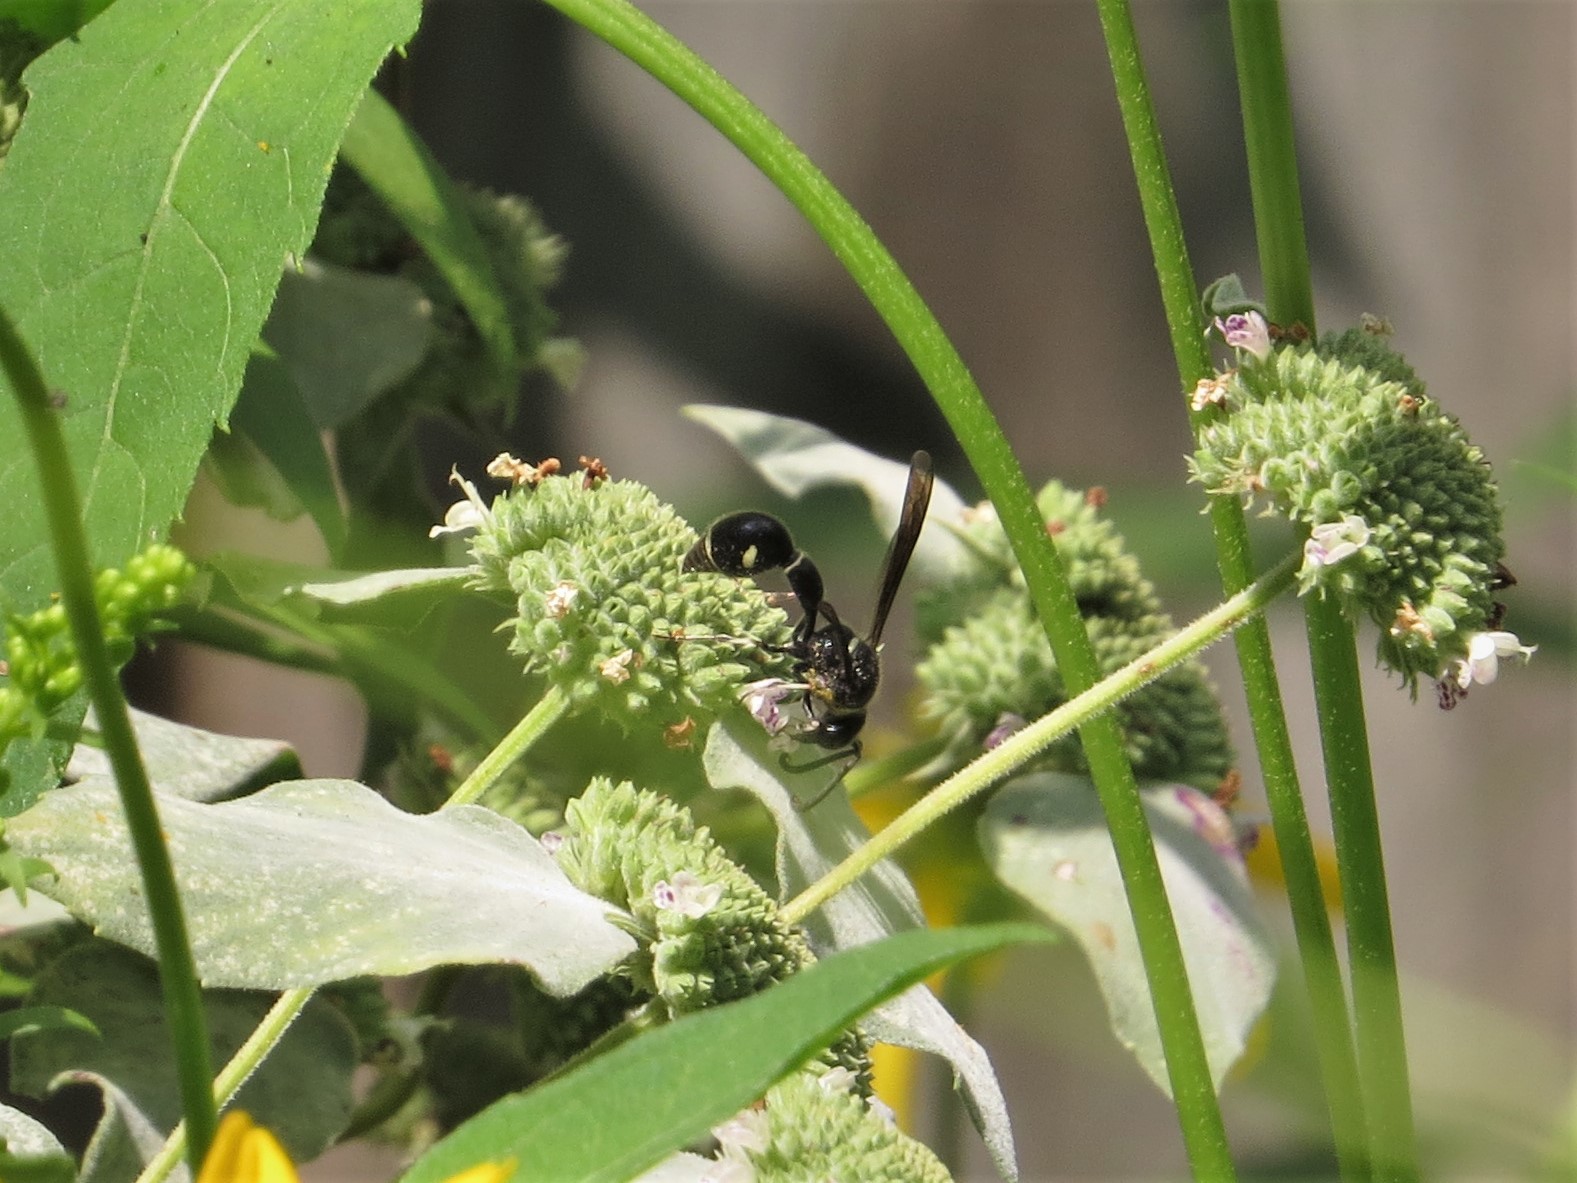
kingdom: Animalia
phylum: Arthropoda
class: Insecta
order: Hymenoptera
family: Vespidae
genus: Eumenes
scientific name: Eumenes fraternus
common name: Fraternal potter wasp
